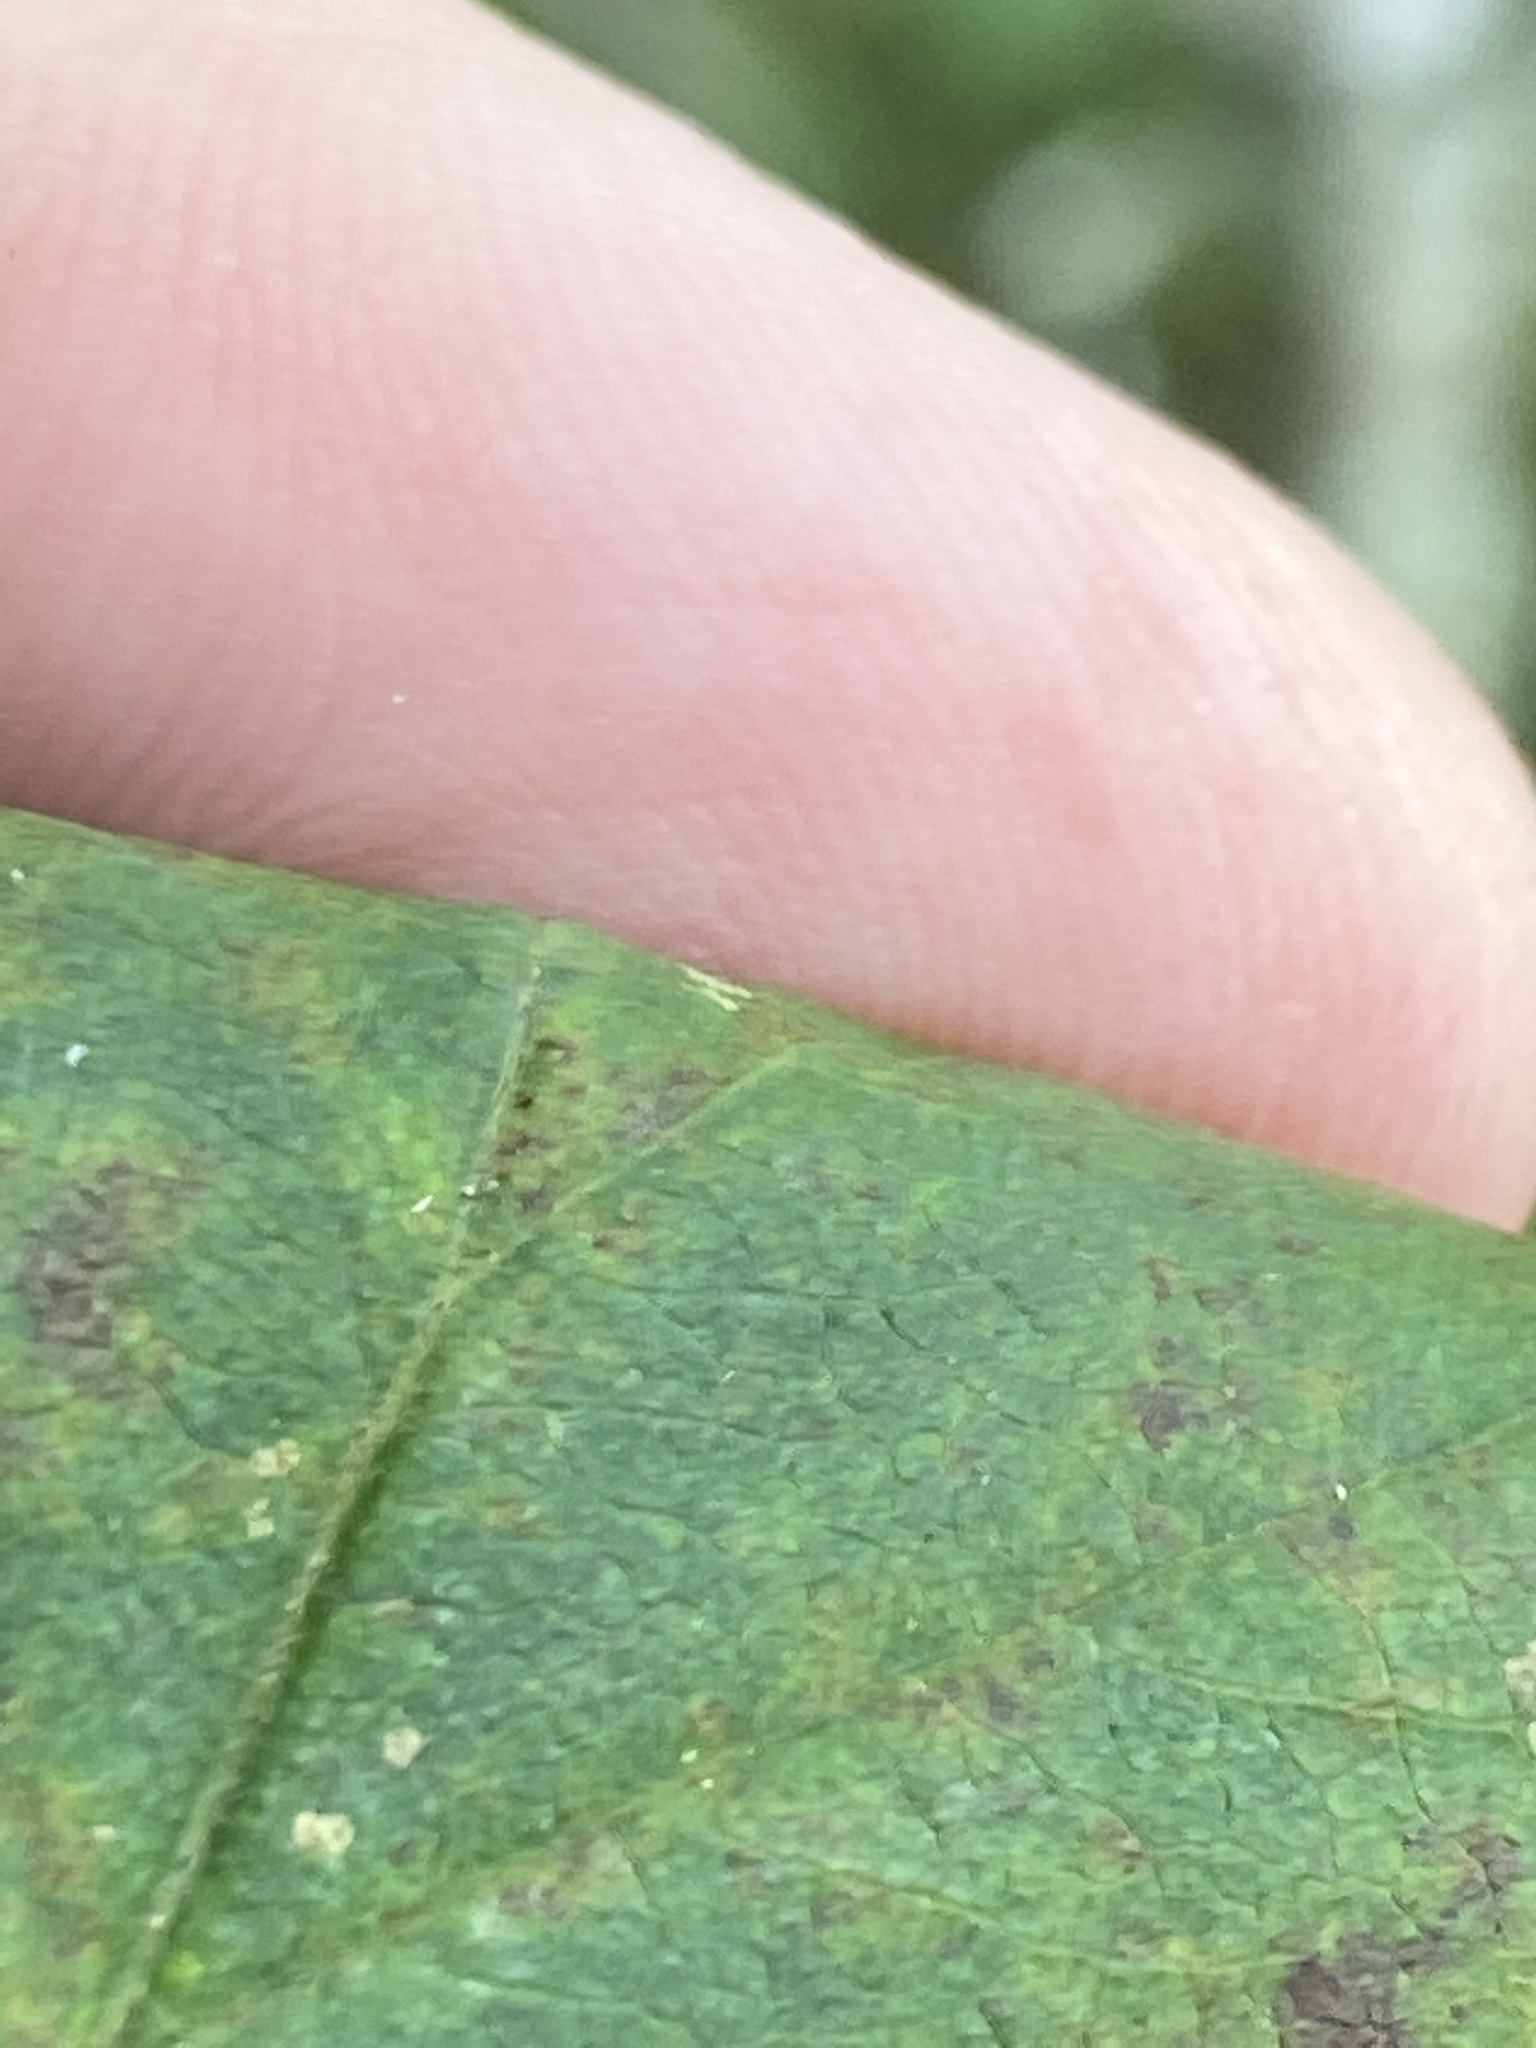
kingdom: Plantae
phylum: Tracheophyta
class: Magnoliopsida
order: Rosales
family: Rosaceae
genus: Crataegus
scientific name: Crataegus macrosperma
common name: Variable hawthorn
